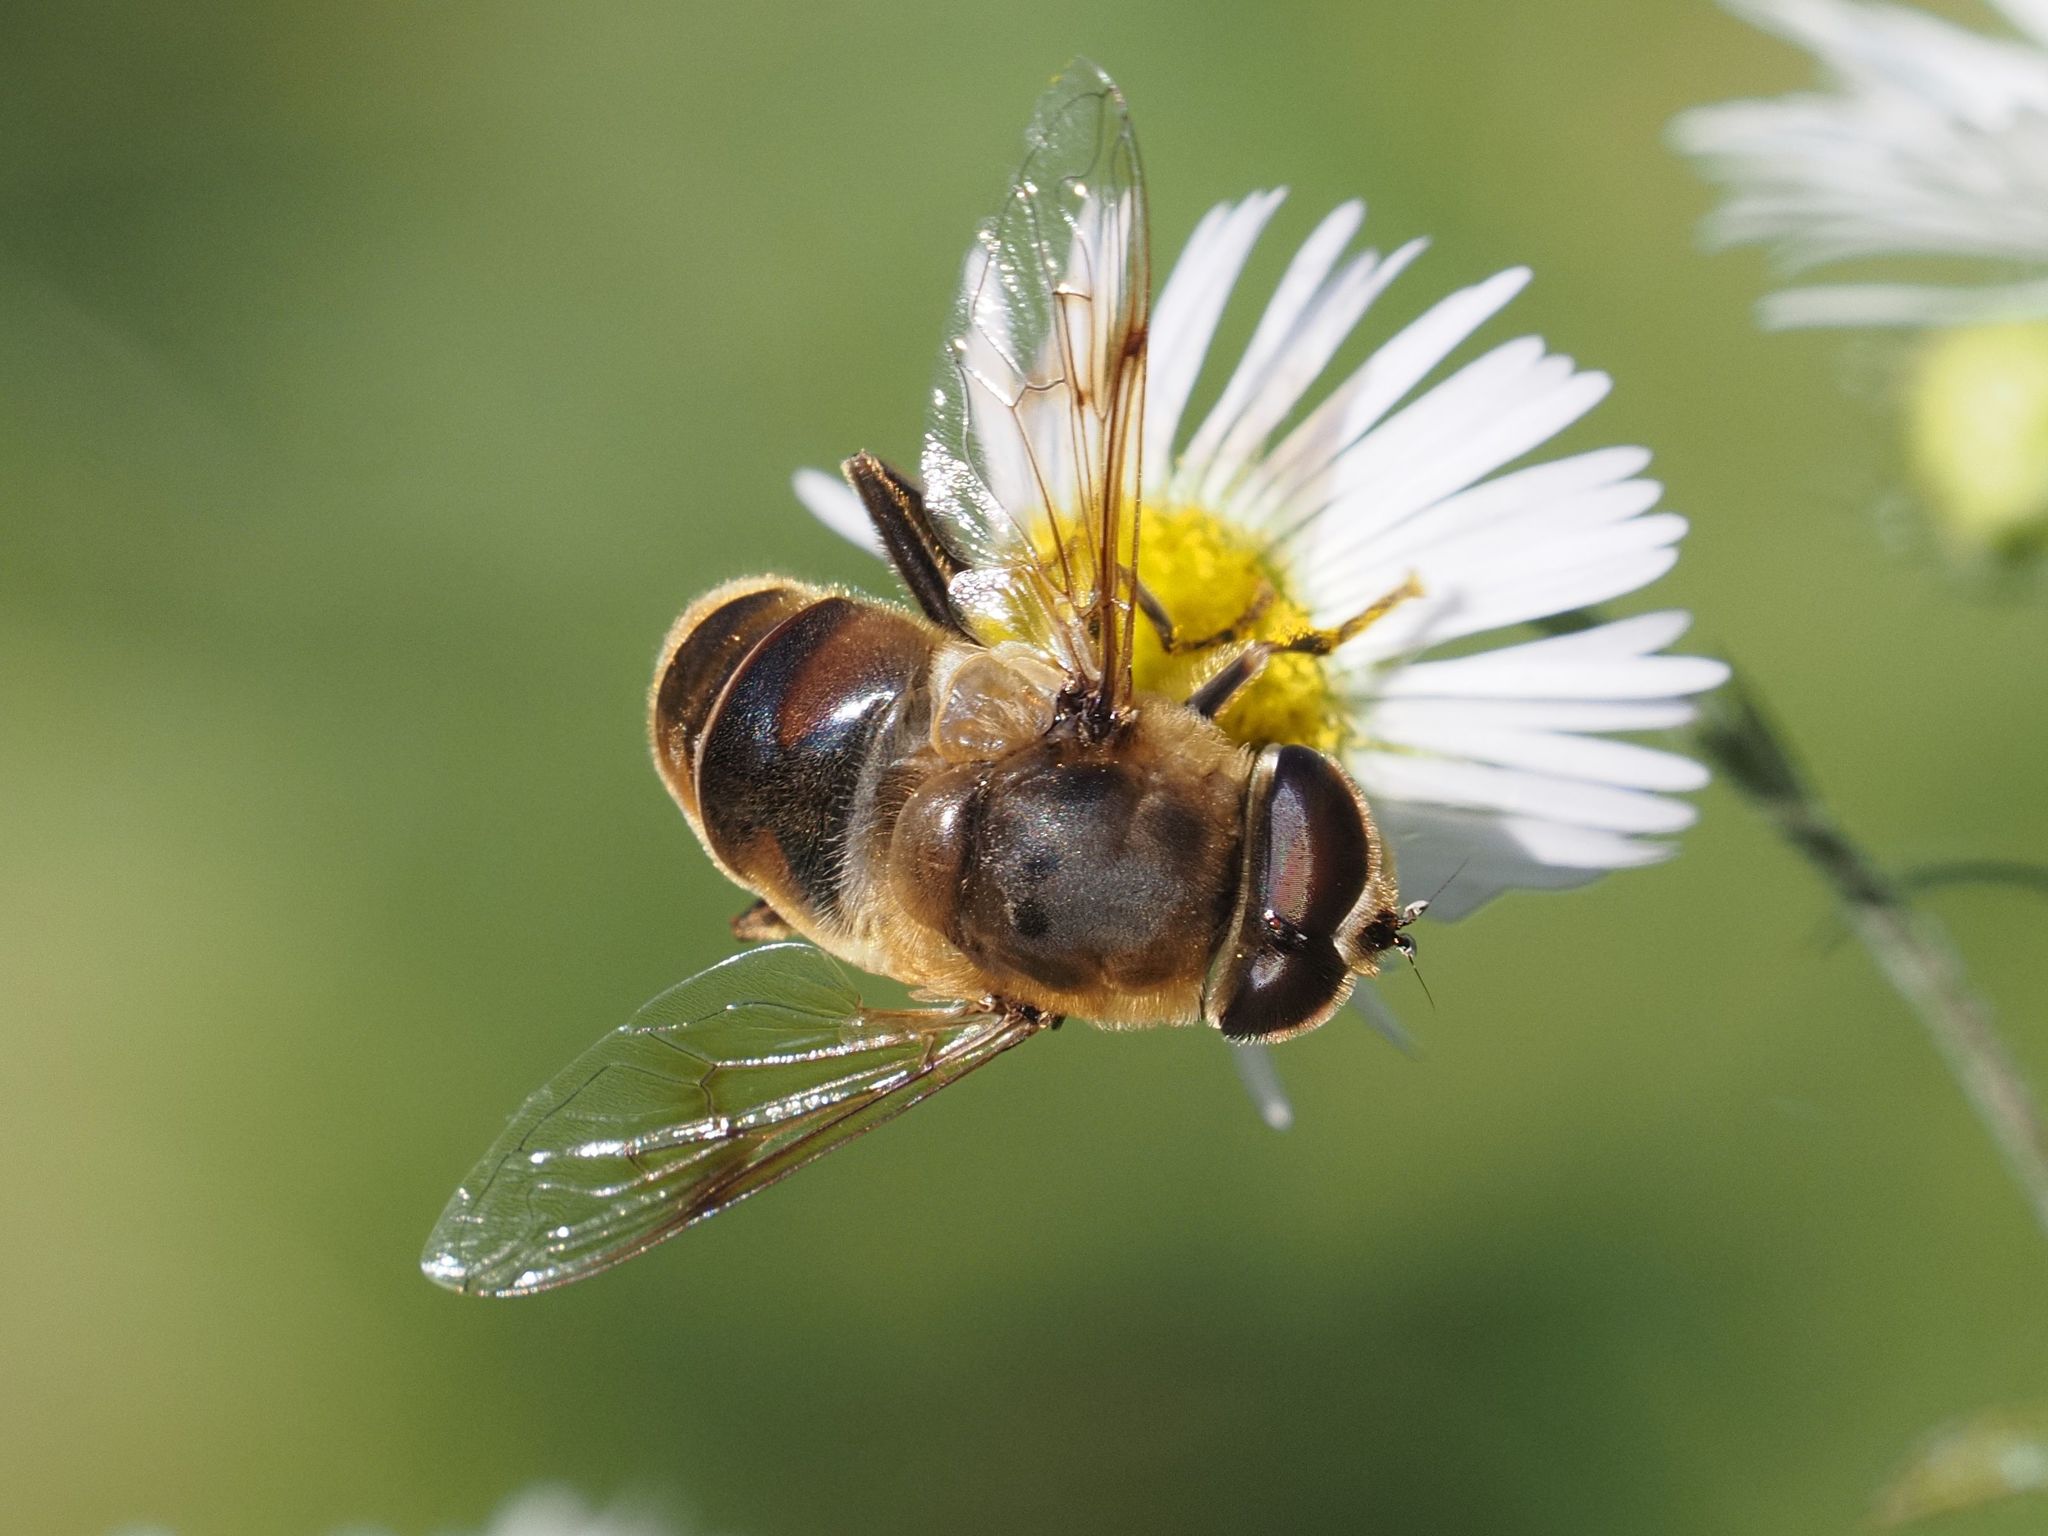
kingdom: Animalia
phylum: Arthropoda
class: Insecta
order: Diptera
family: Syrphidae
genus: Eristalis
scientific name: Eristalis tenax
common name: Drone fly
